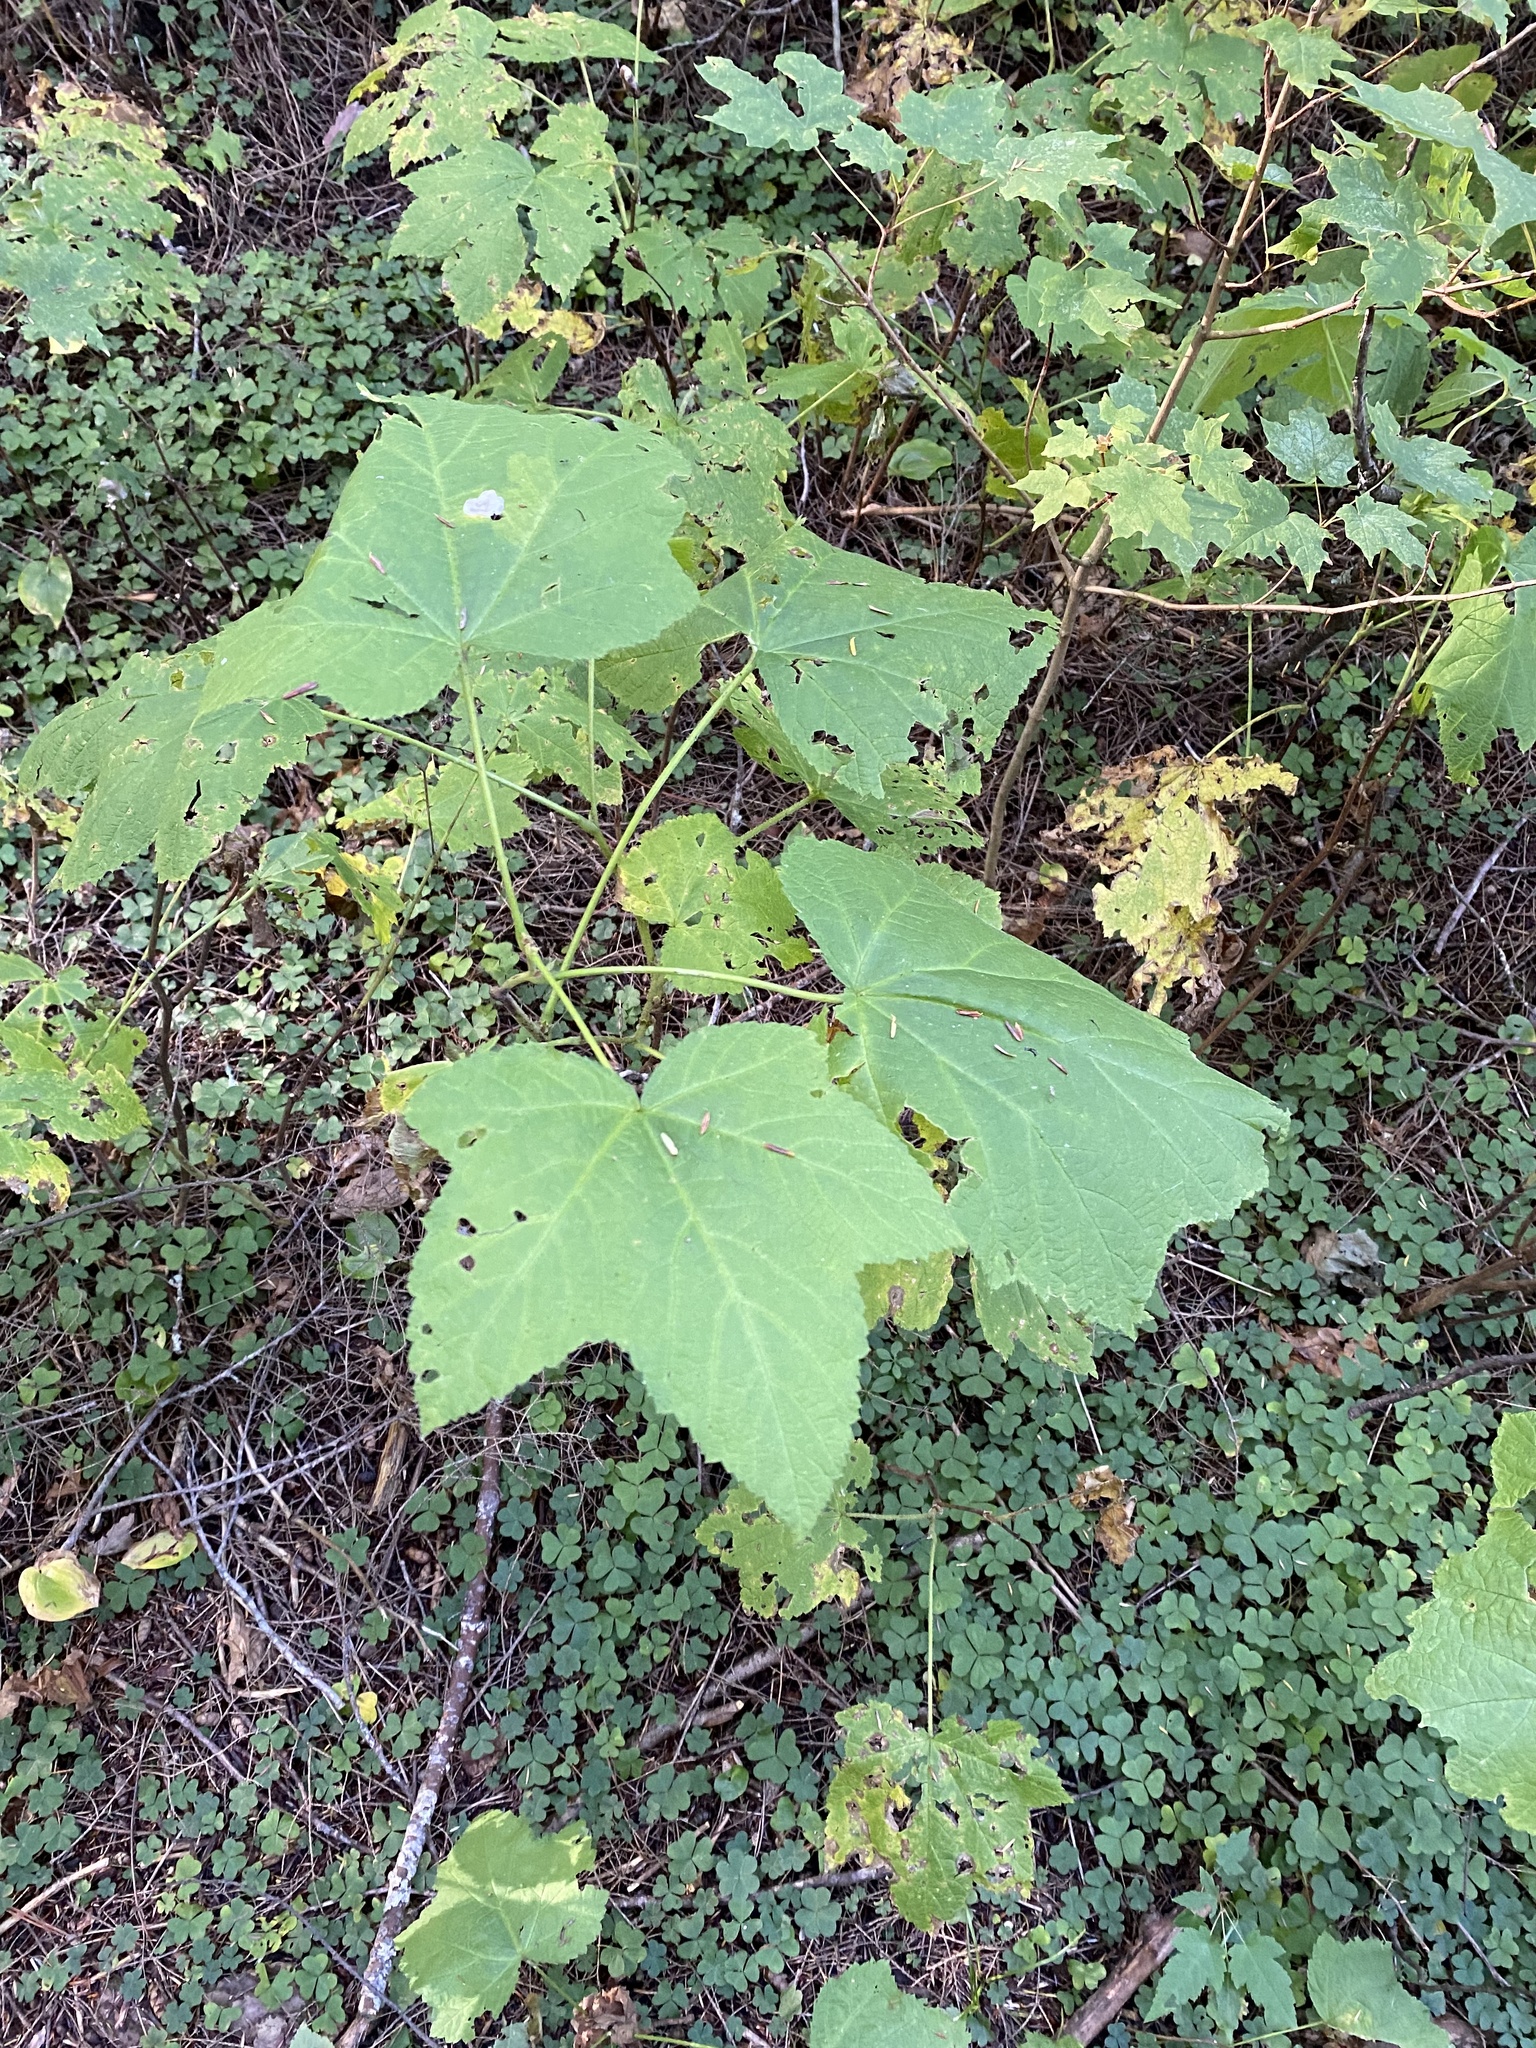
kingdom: Plantae
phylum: Tracheophyta
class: Magnoliopsida
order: Rosales
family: Rosaceae
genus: Rubus
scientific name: Rubus parviflorus
